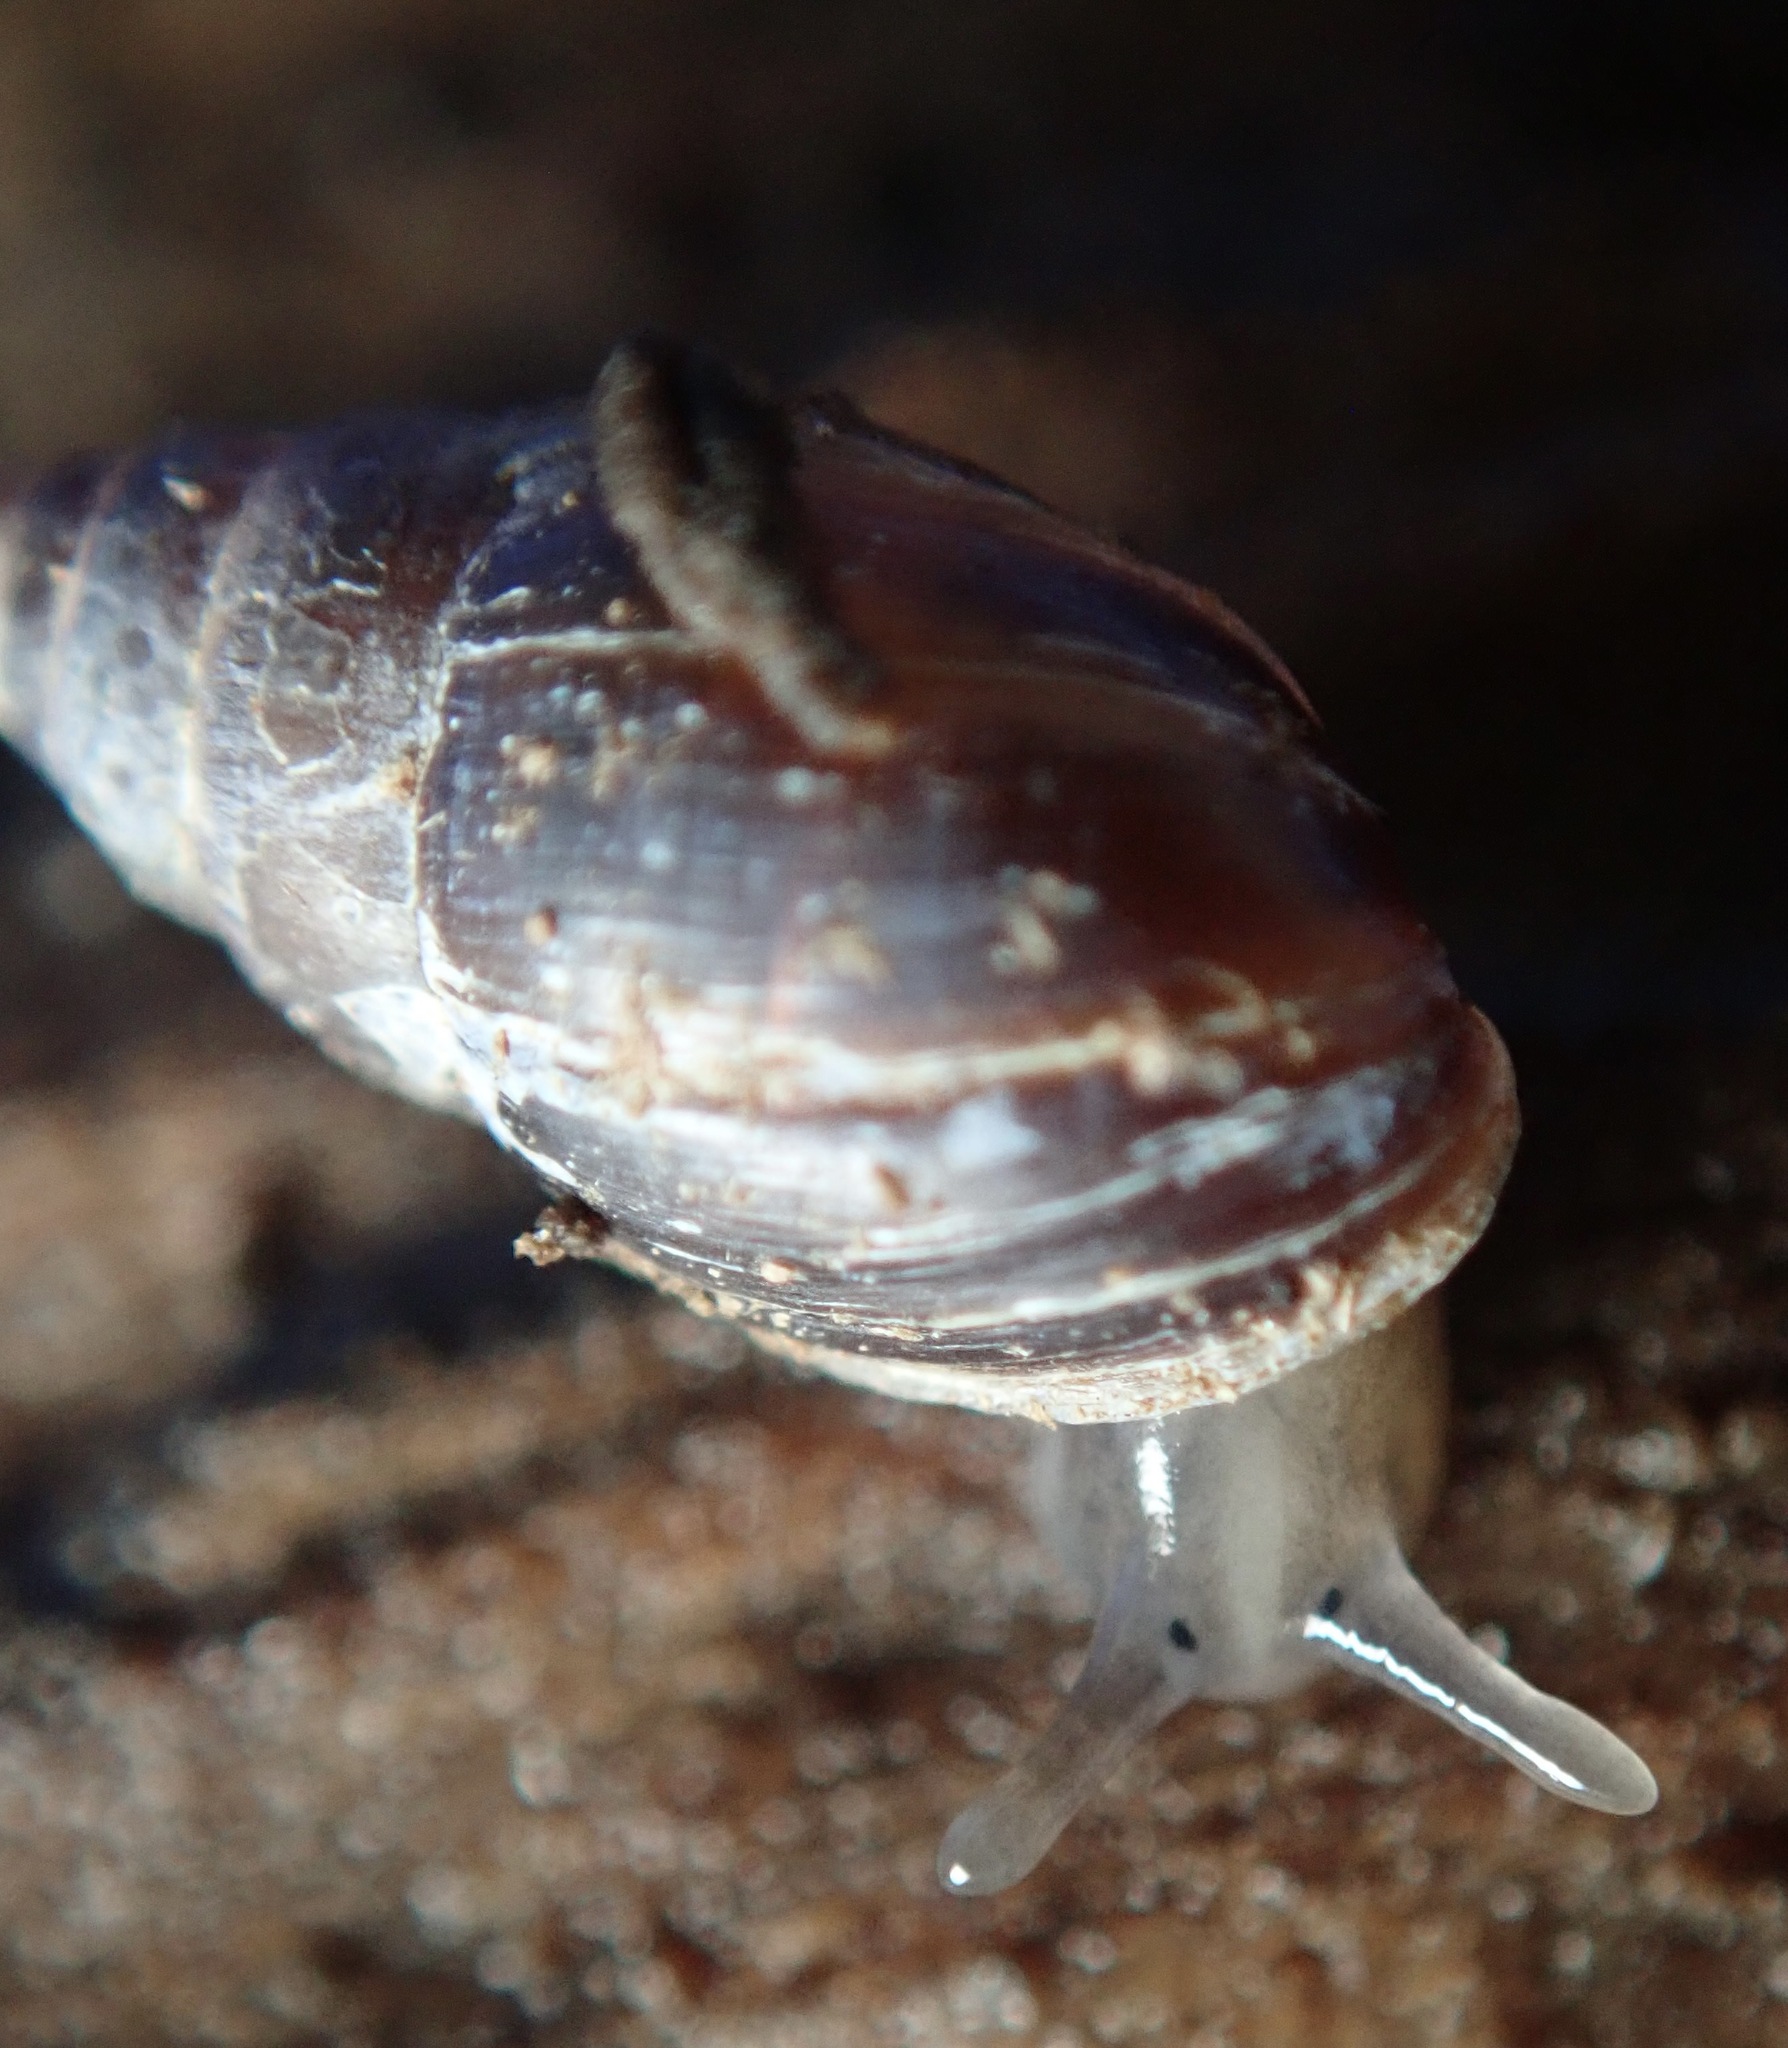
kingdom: Animalia
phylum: Mollusca
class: Gastropoda
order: Ellobiida
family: Ellobiidae
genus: Myosotella
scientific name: Myosotella myosotis
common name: Mouse-eared snail
